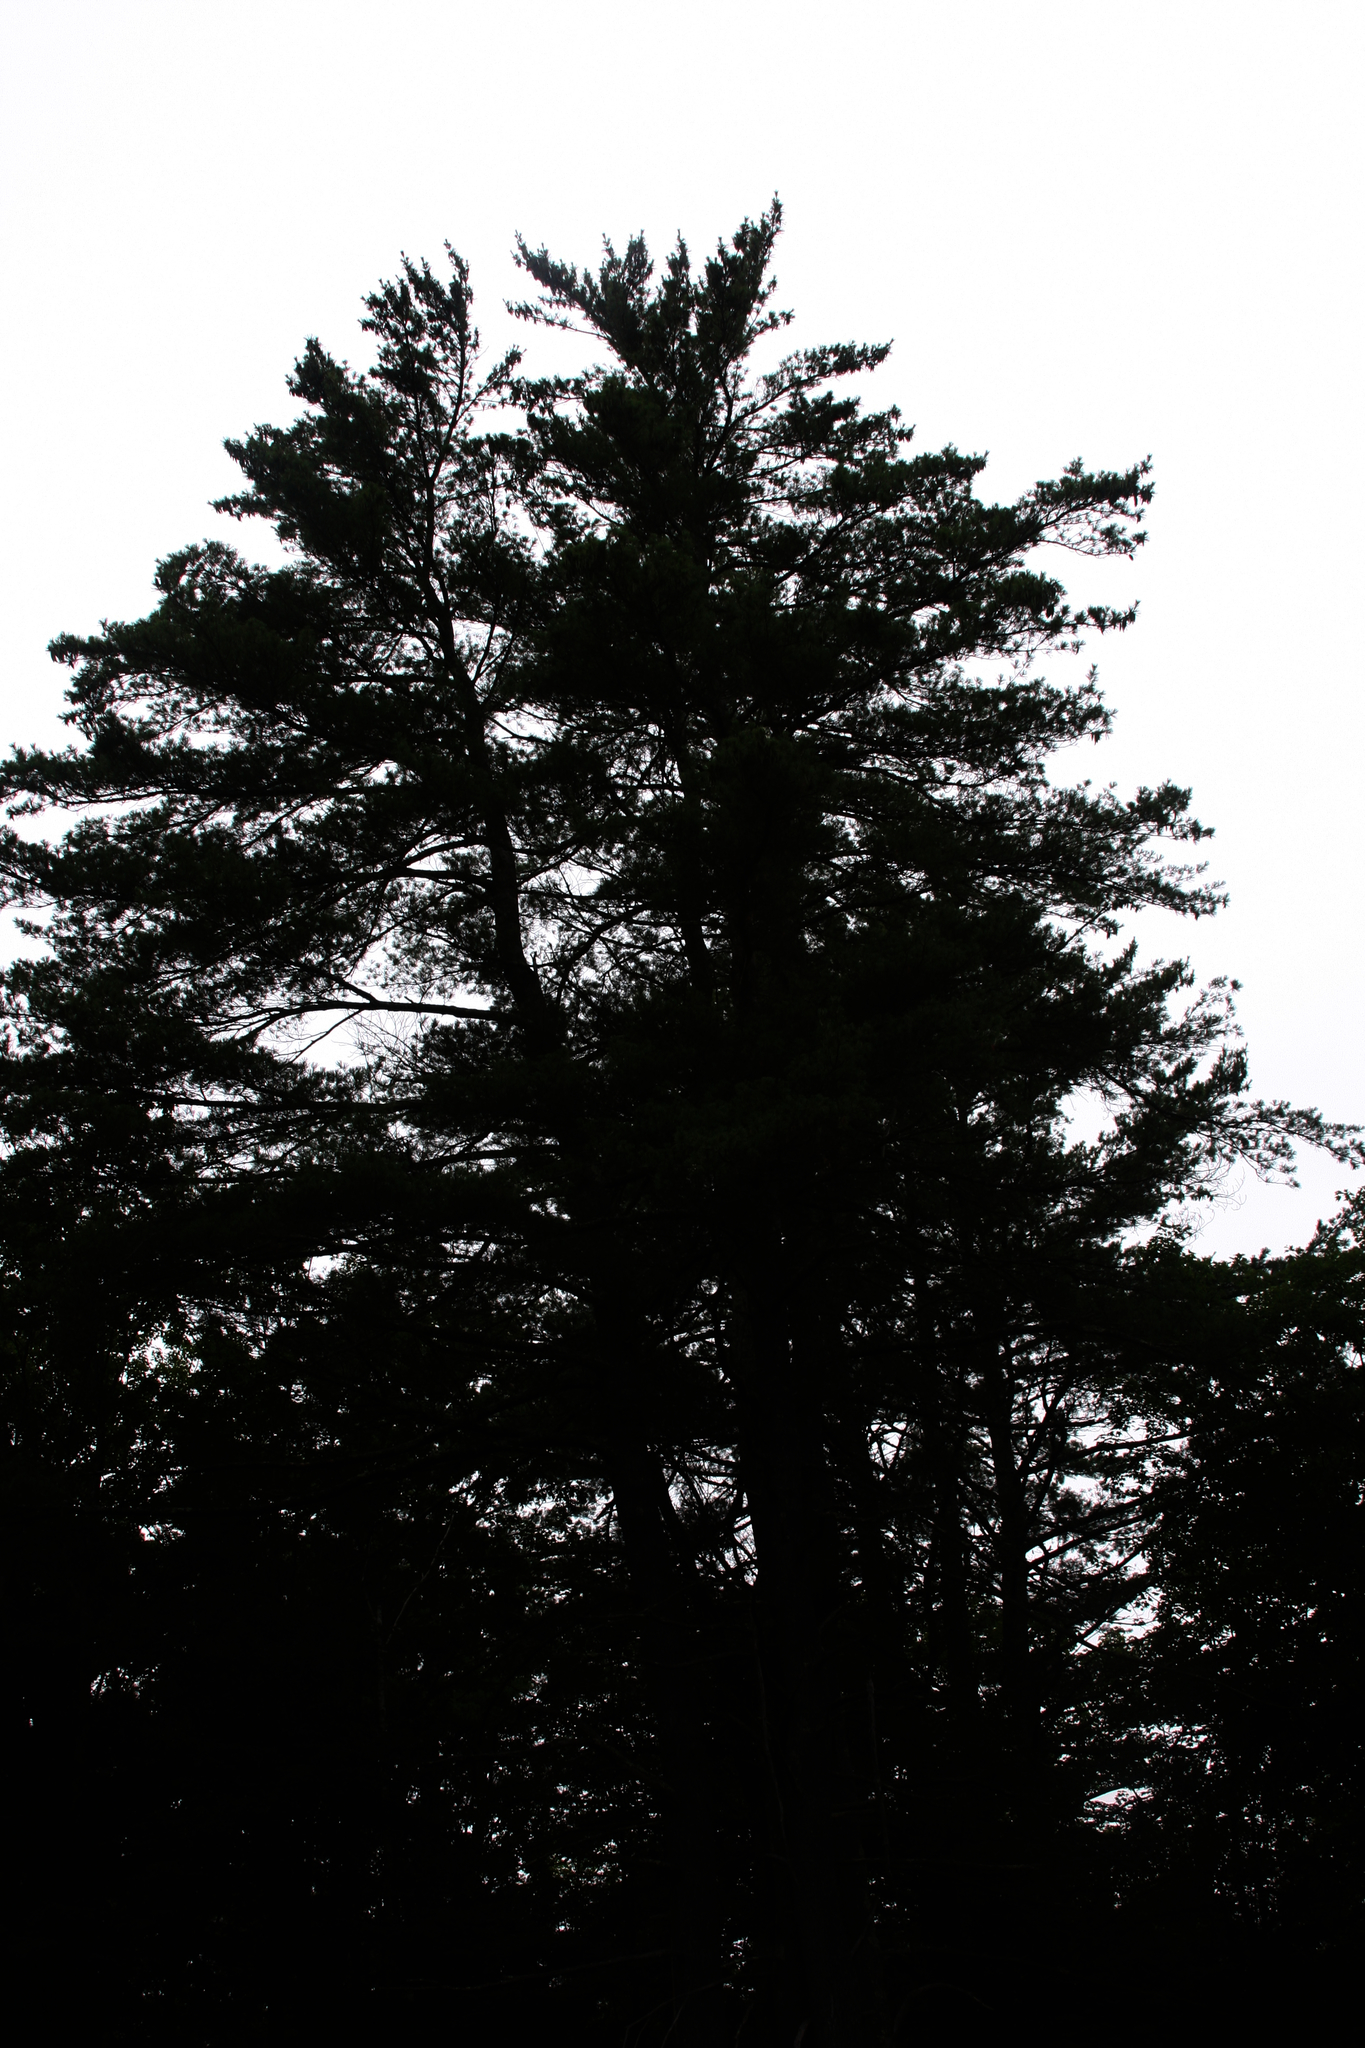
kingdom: Plantae
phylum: Tracheophyta
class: Pinopsida
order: Pinales
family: Pinaceae
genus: Pinus
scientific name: Pinus strobus
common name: Weymouth pine
